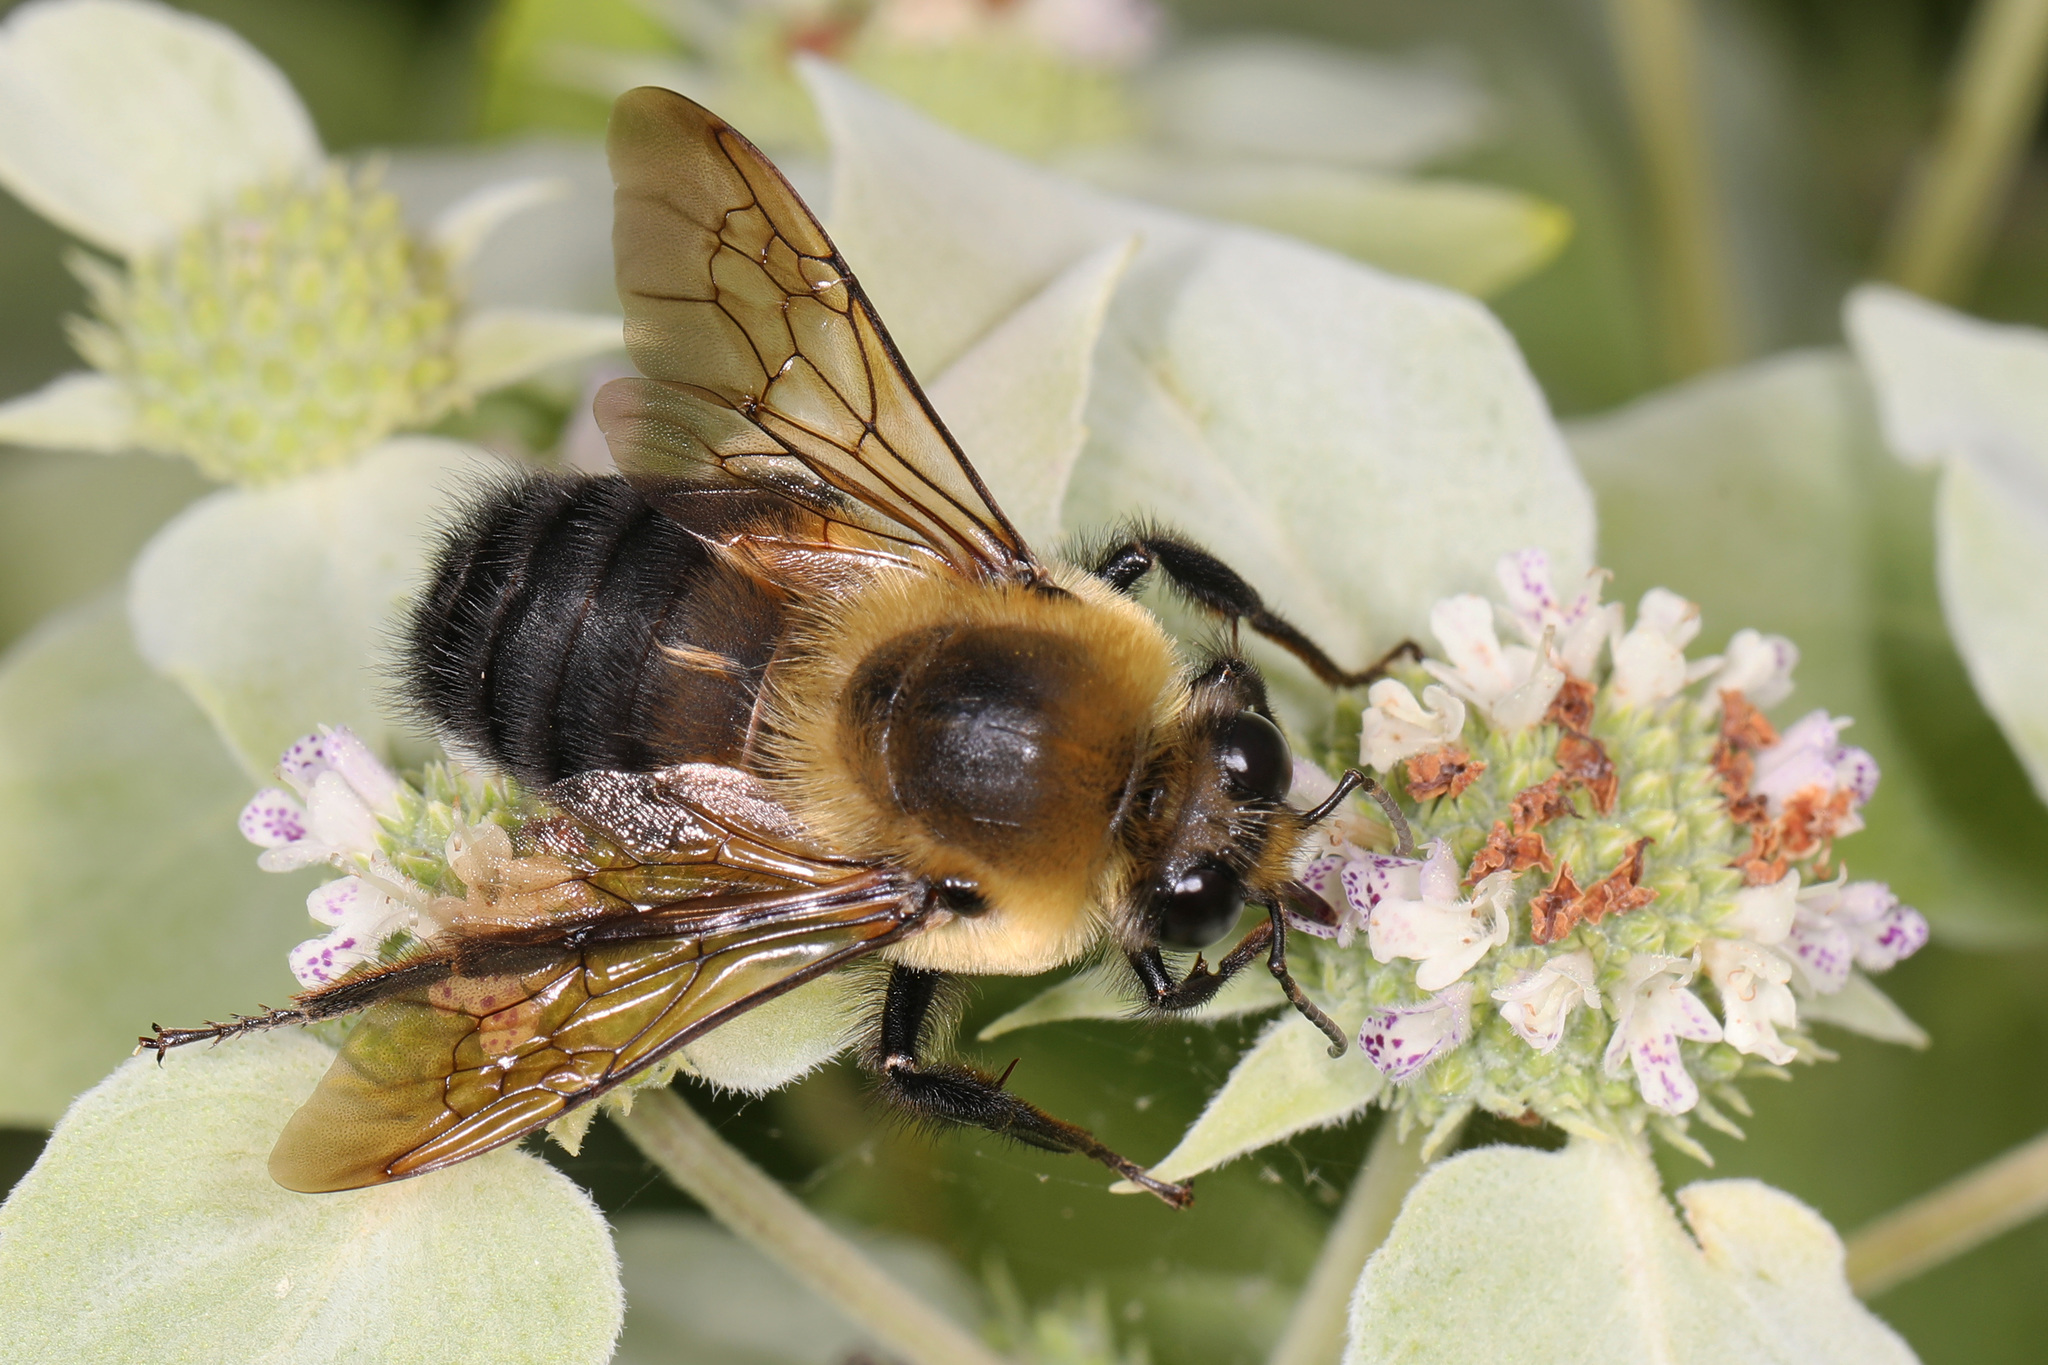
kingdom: Animalia
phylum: Arthropoda
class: Insecta
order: Hymenoptera
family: Apidae
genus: Bombus
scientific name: Bombus griseocollis
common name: Brown-belted bumble bee
